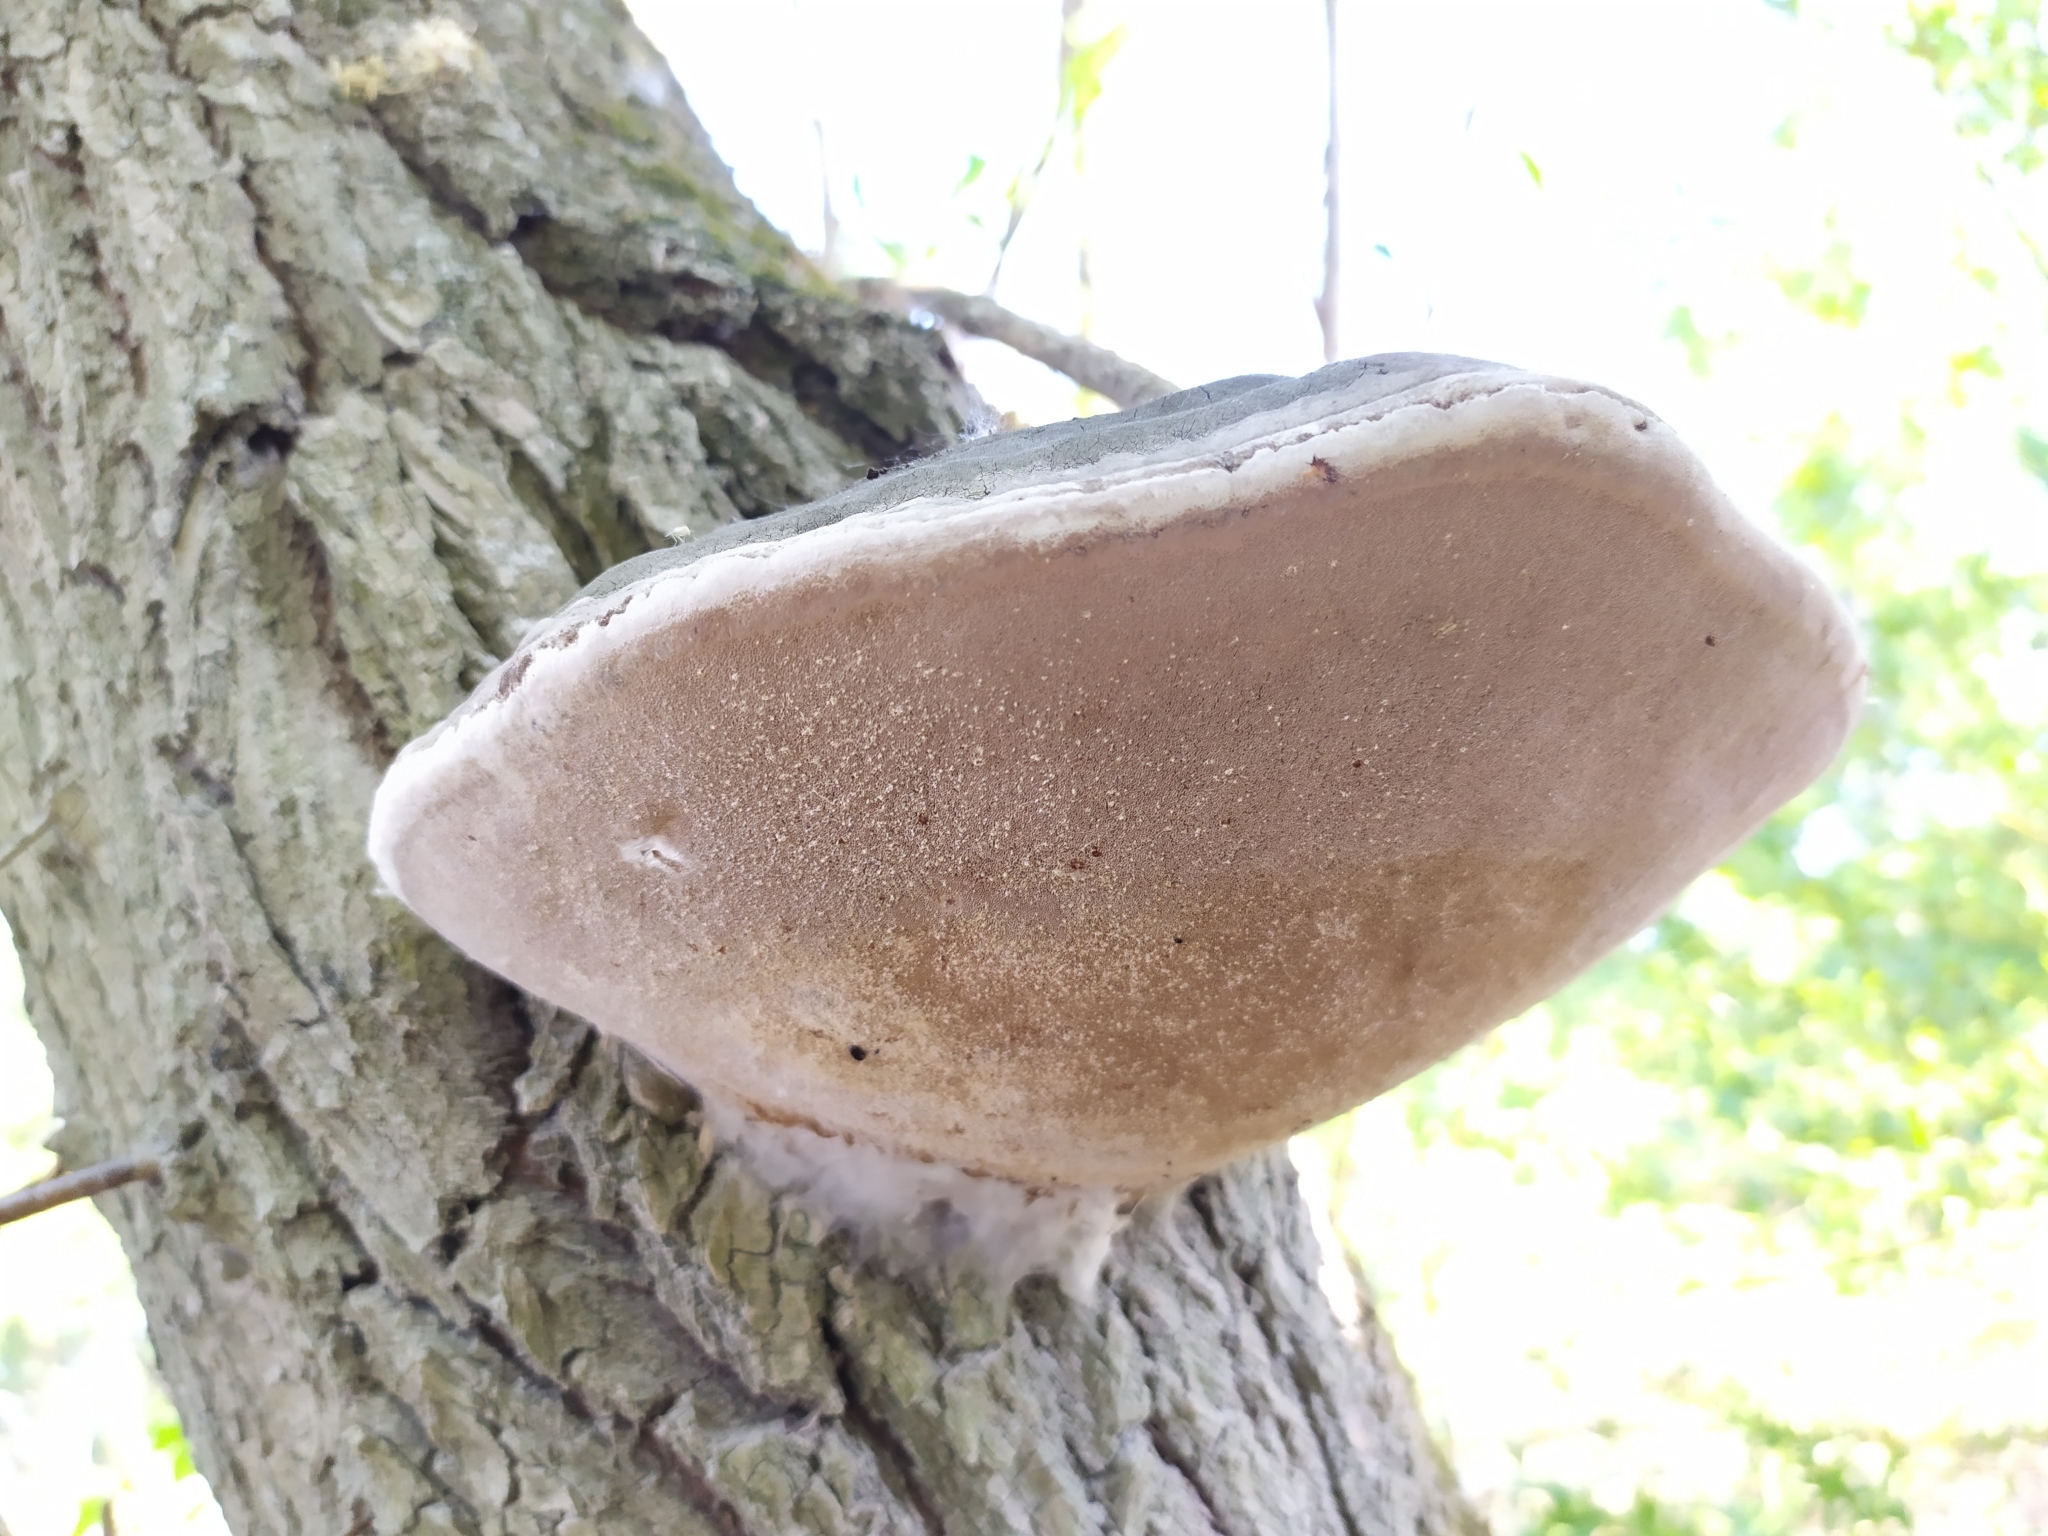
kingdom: Fungi
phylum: Basidiomycota
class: Agaricomycetes
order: Hymenochaetales
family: Hymenochaetaceae
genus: Phellinus
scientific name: Phellinus igniarius
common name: Willow bracket
